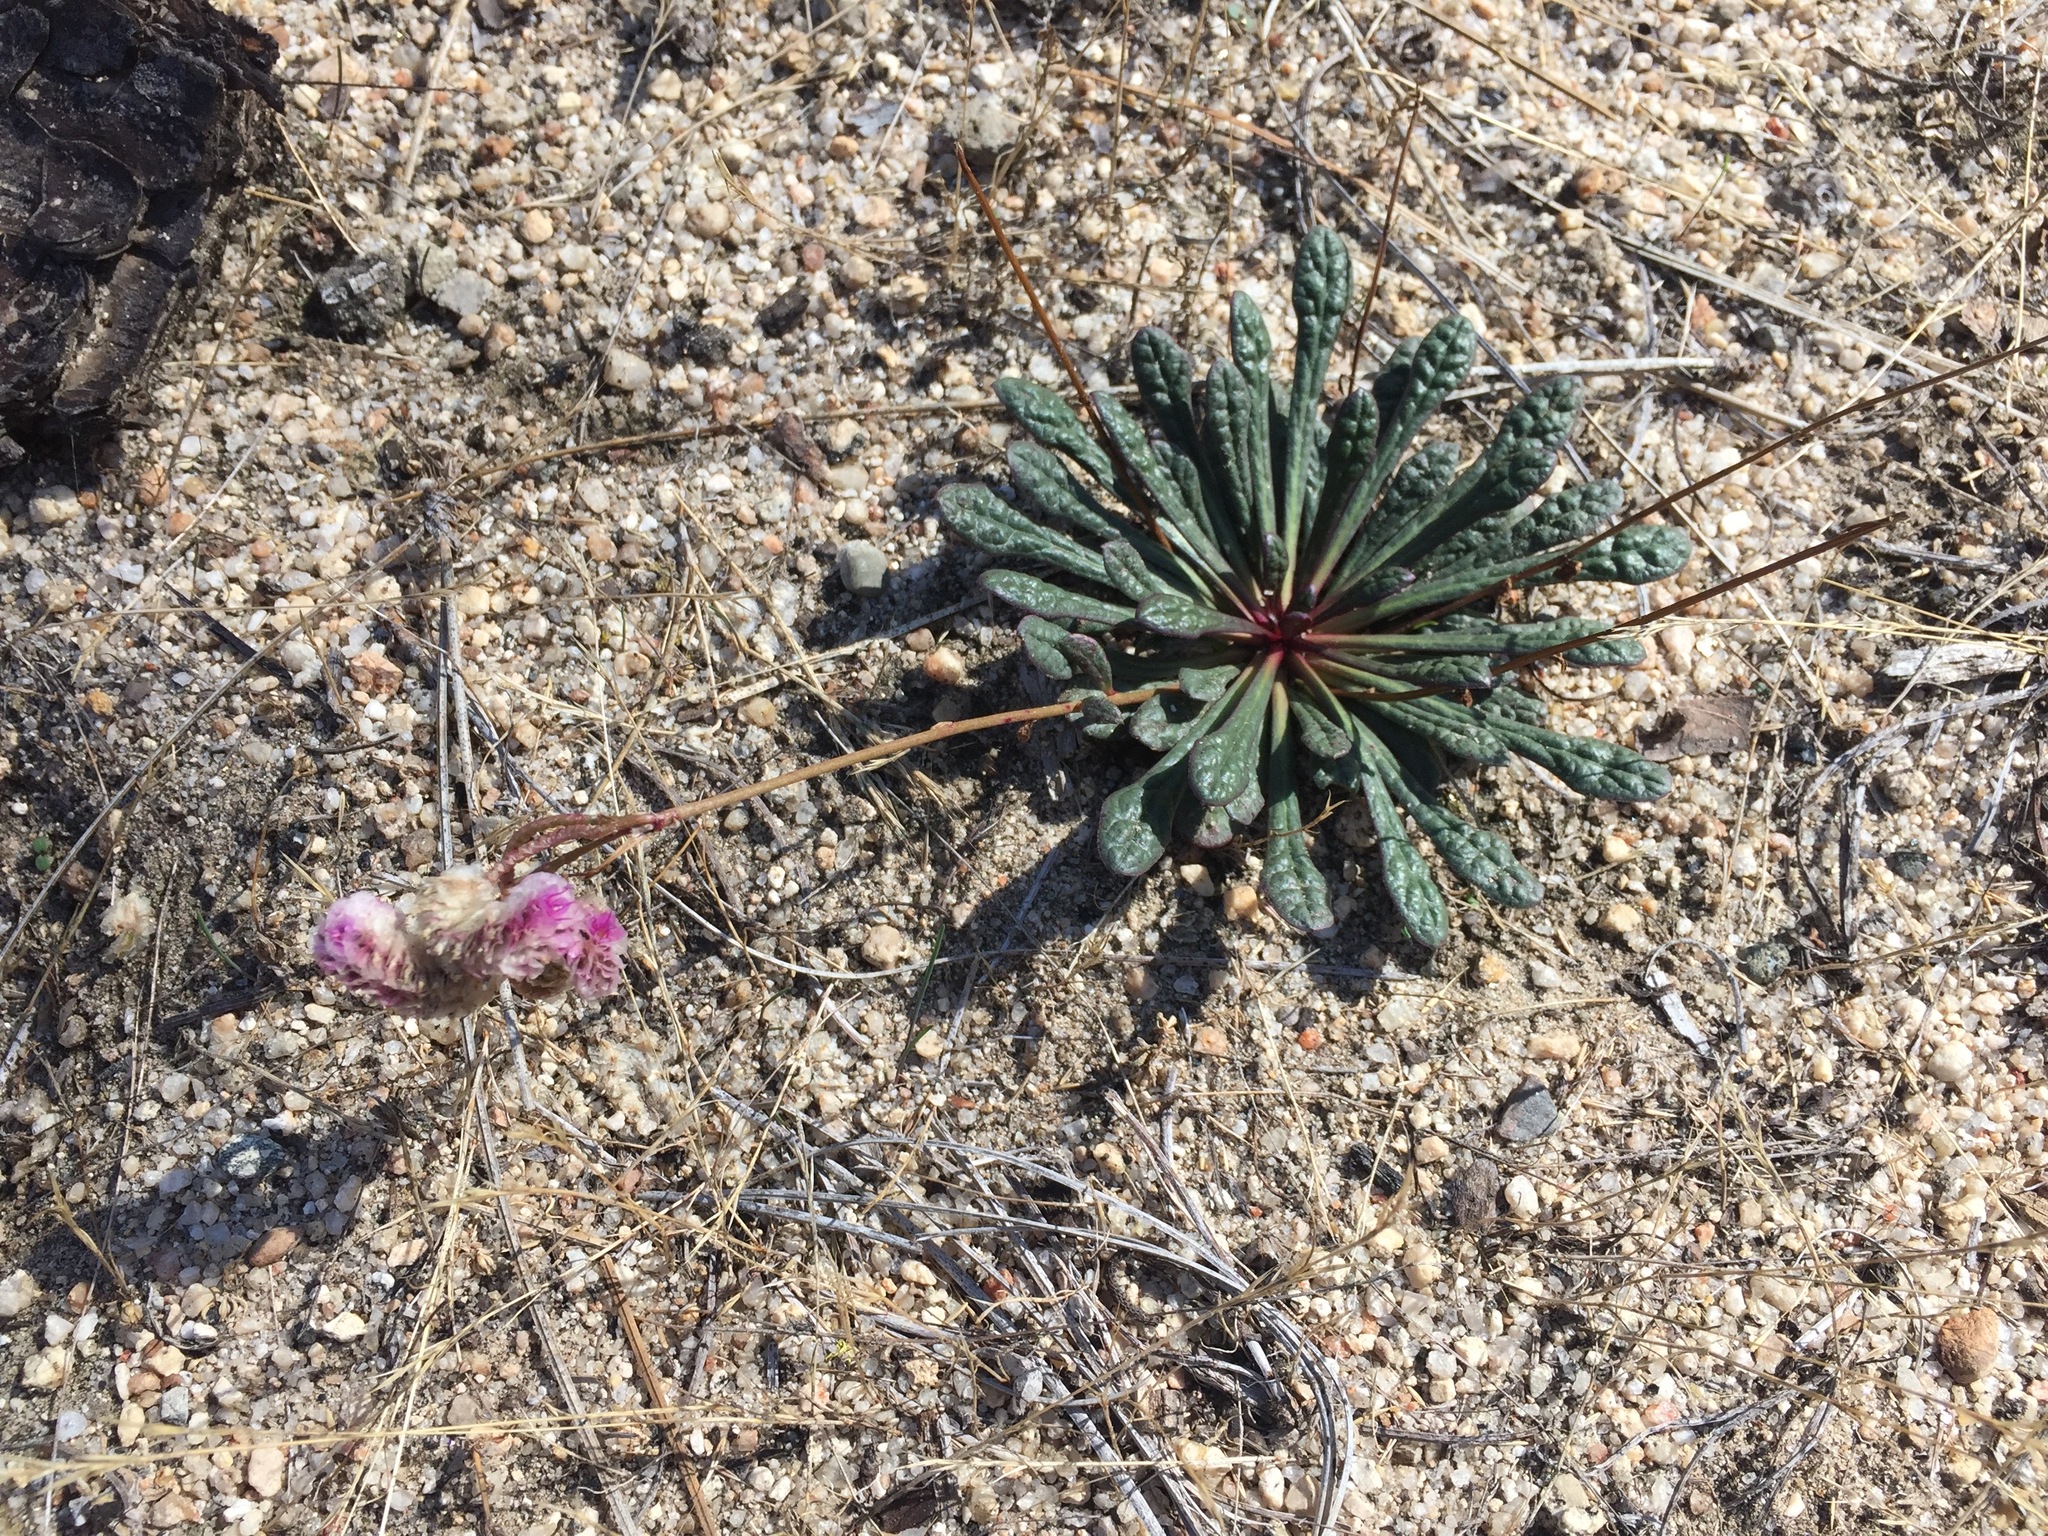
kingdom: Plantae
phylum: Tracheophyta
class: Magnoliopsida
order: Caryophyllales
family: Montiaceae
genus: Calyptridium
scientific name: Calyptridium monospermum
